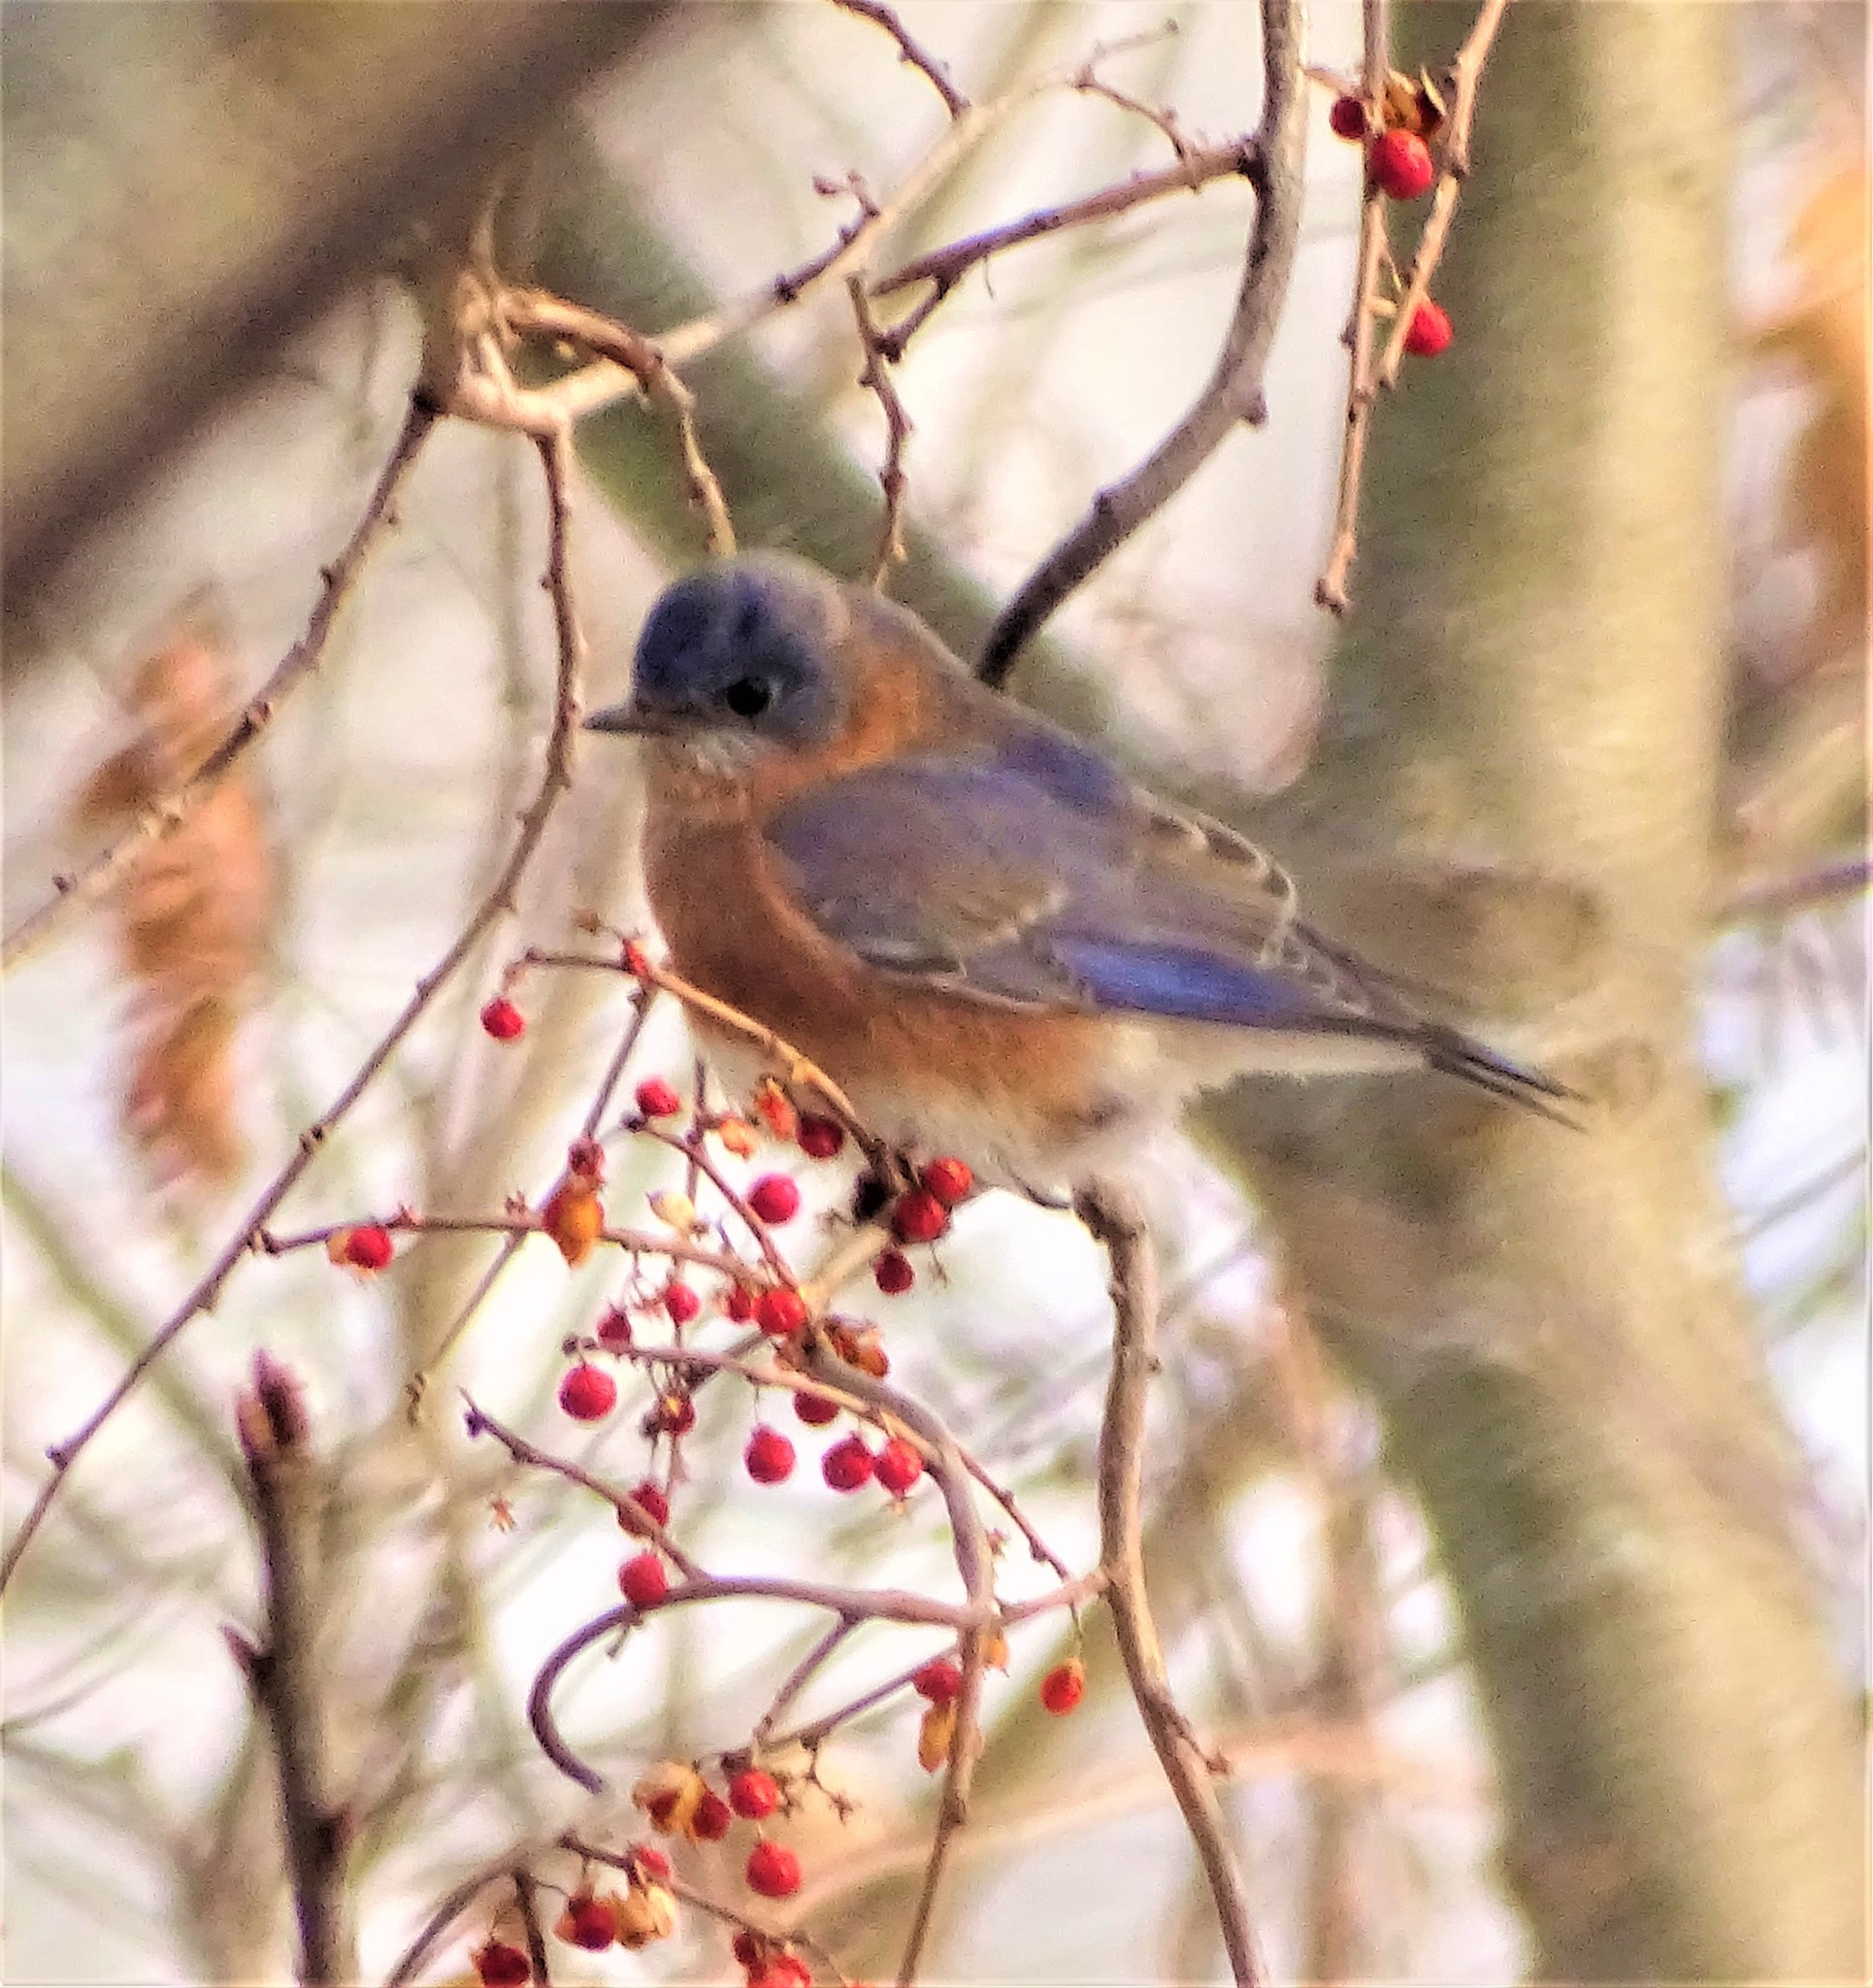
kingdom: Animalia
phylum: Chordata
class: Aves
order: Passeriformes
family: Turdidae
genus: Sialia
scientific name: Sialia sialis
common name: Eastern bluebird
